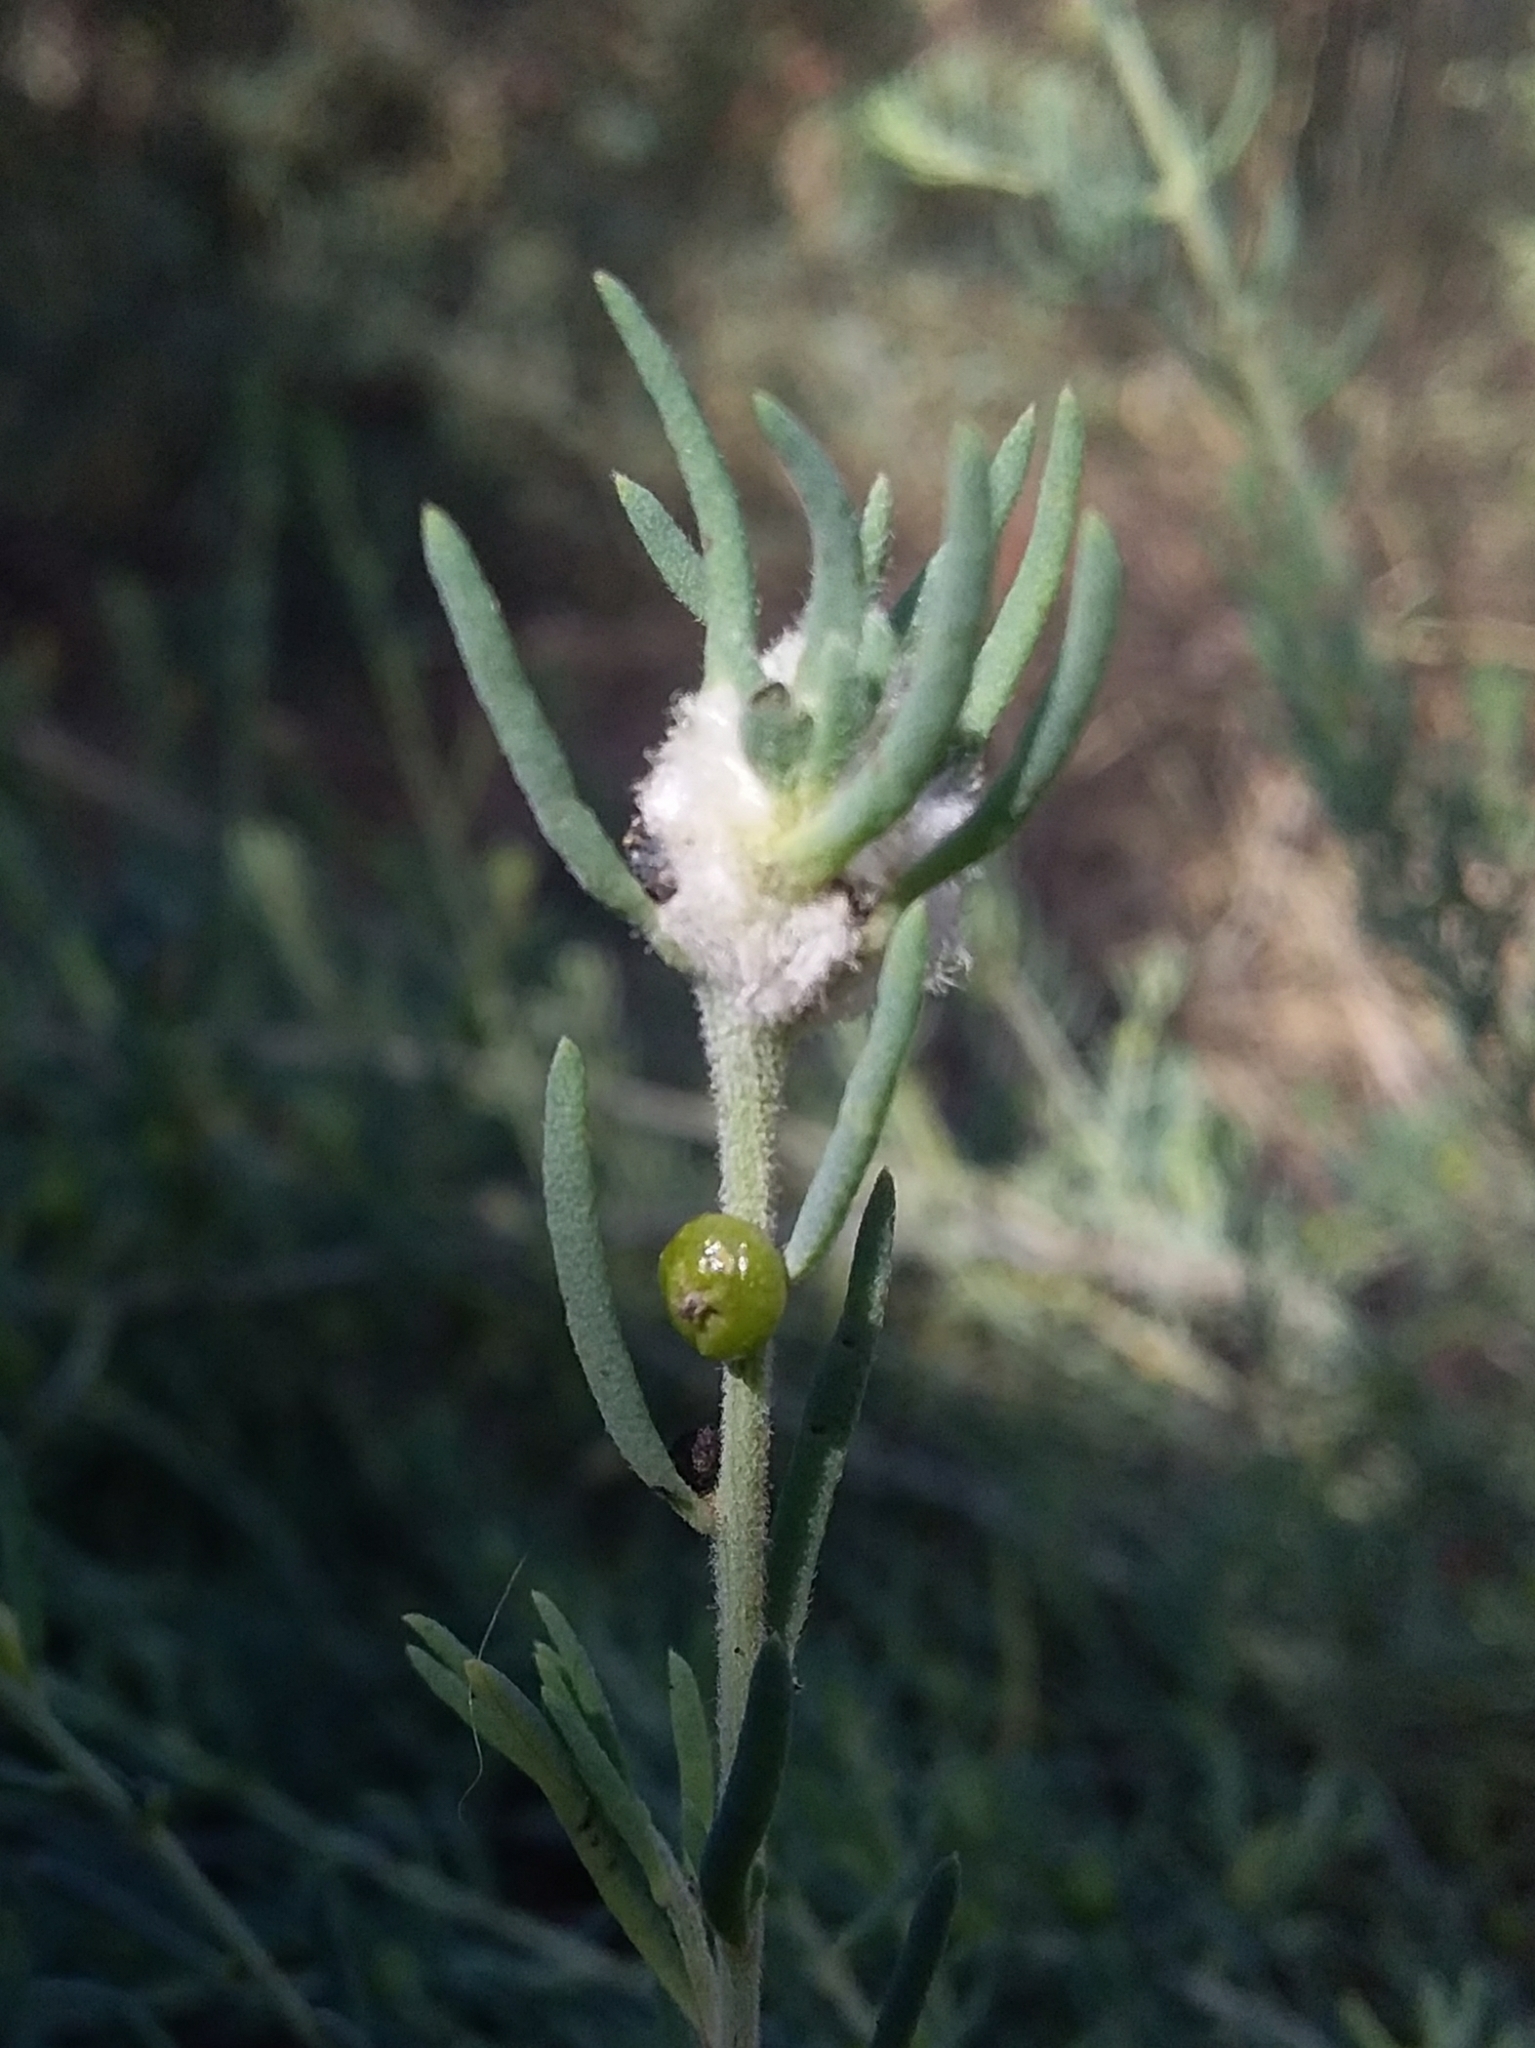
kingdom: Animalia
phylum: Arthropoda
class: Insecta
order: Diptera
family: Cecidomyiidae
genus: Asphondylia
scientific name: Asphondylia tonsura
